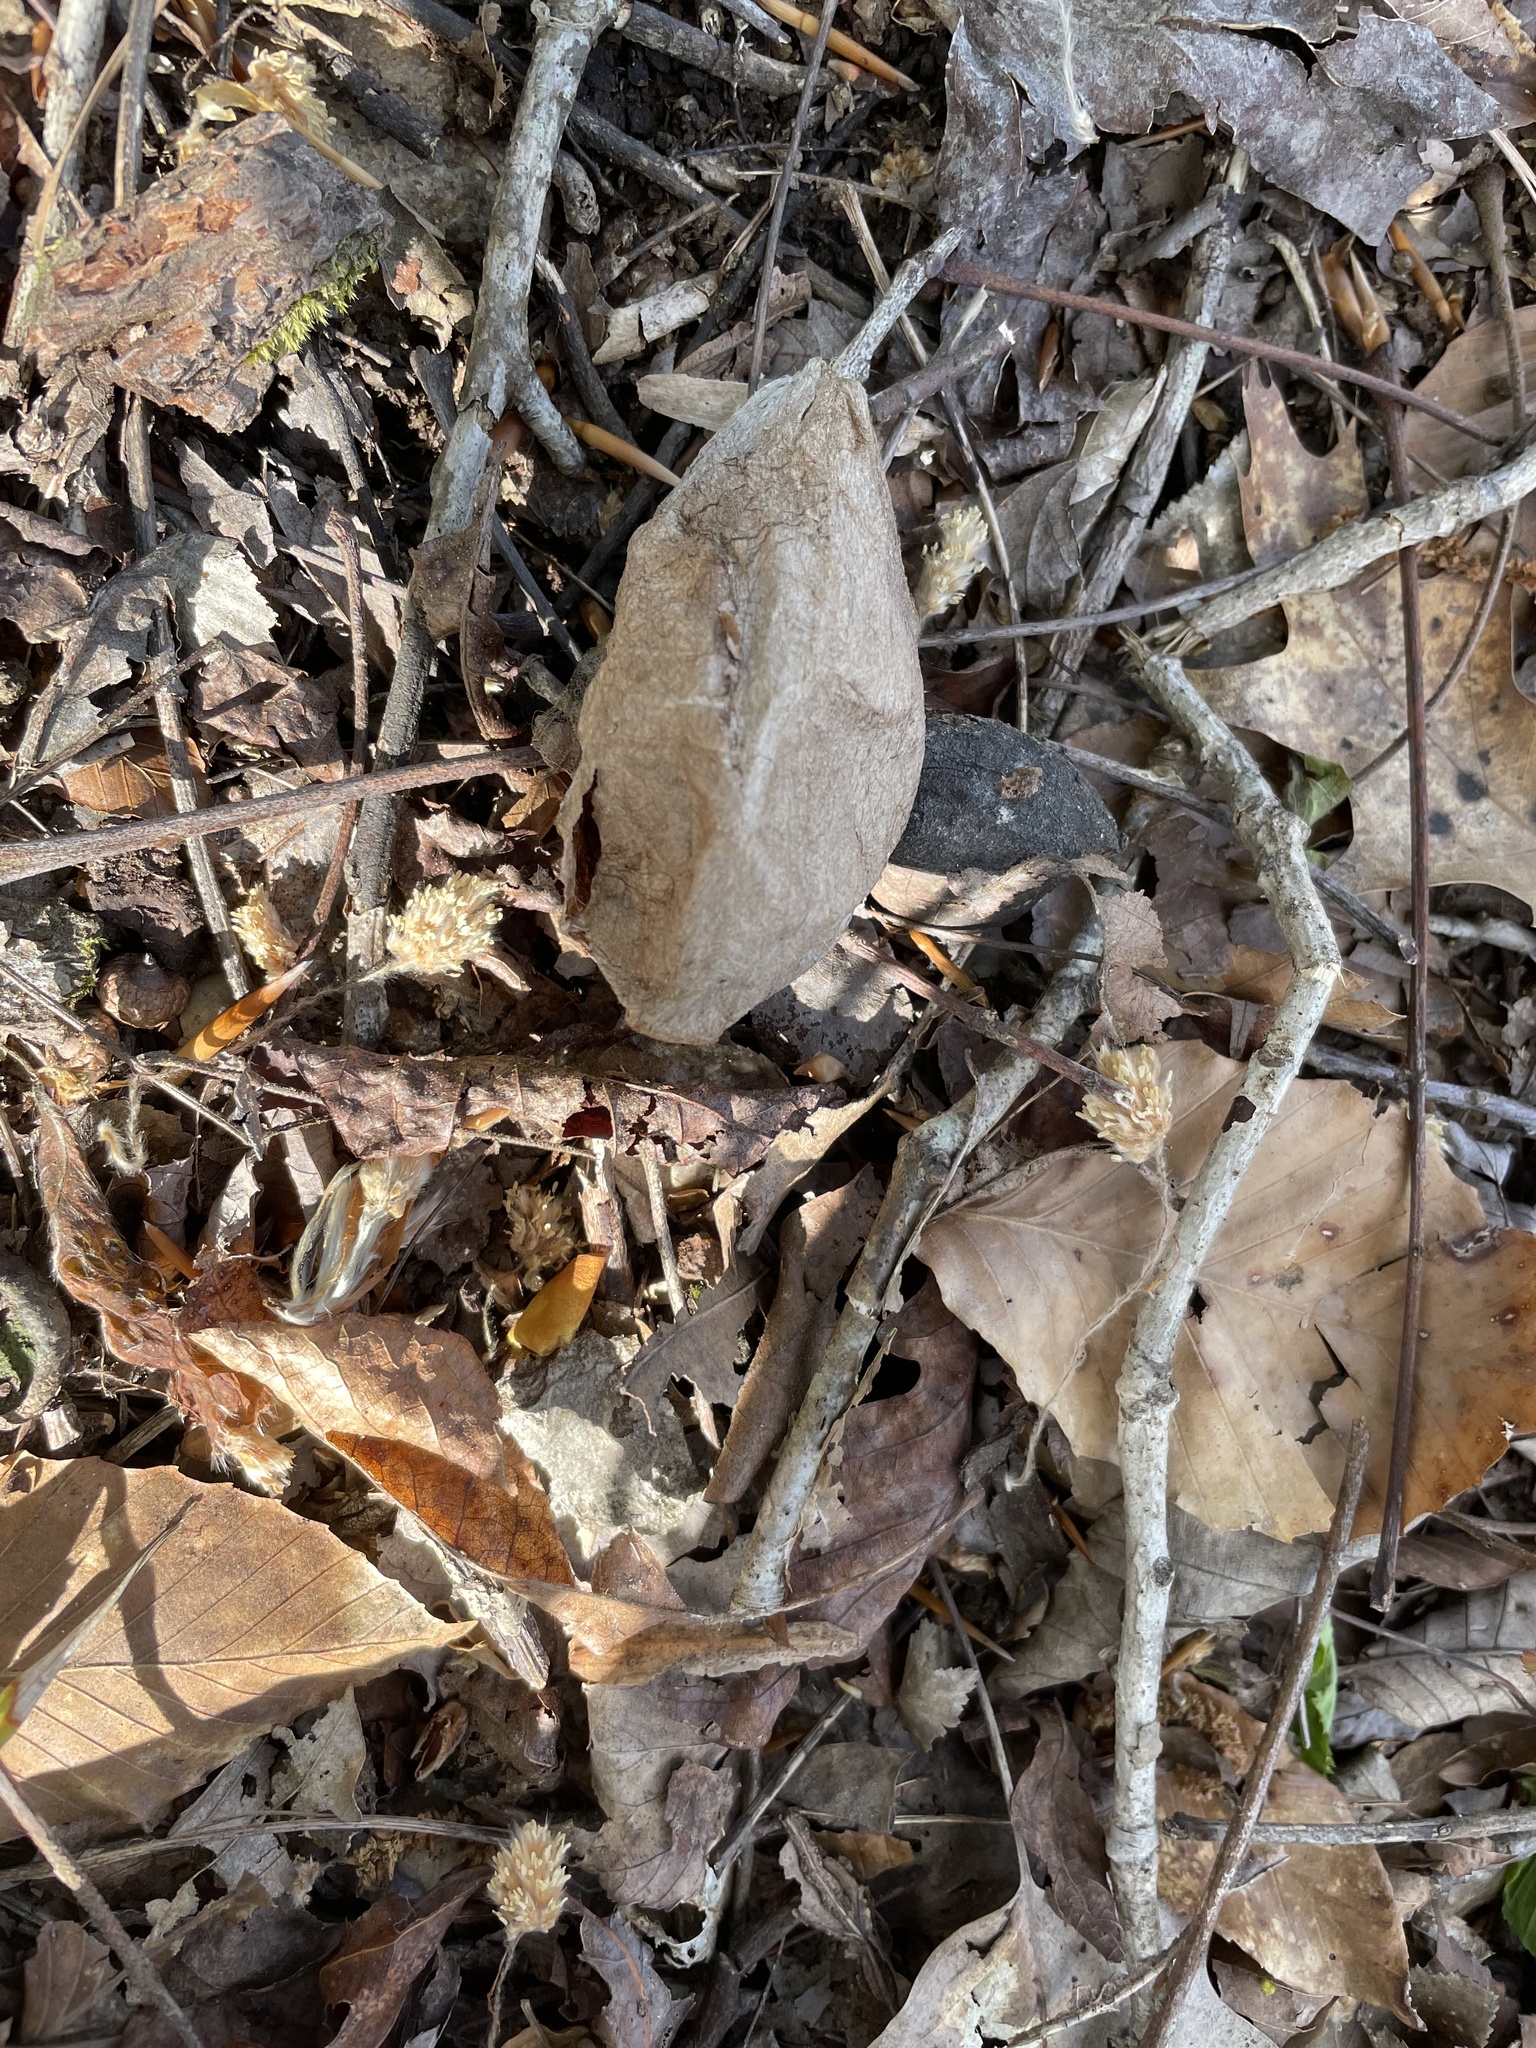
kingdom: Animalia
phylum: Arthropoda
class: Insecta
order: Lepidoptera
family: Saturniidae
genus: Hyalophora
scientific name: Hyalophora cecropia
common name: Cecropia silkmoth
